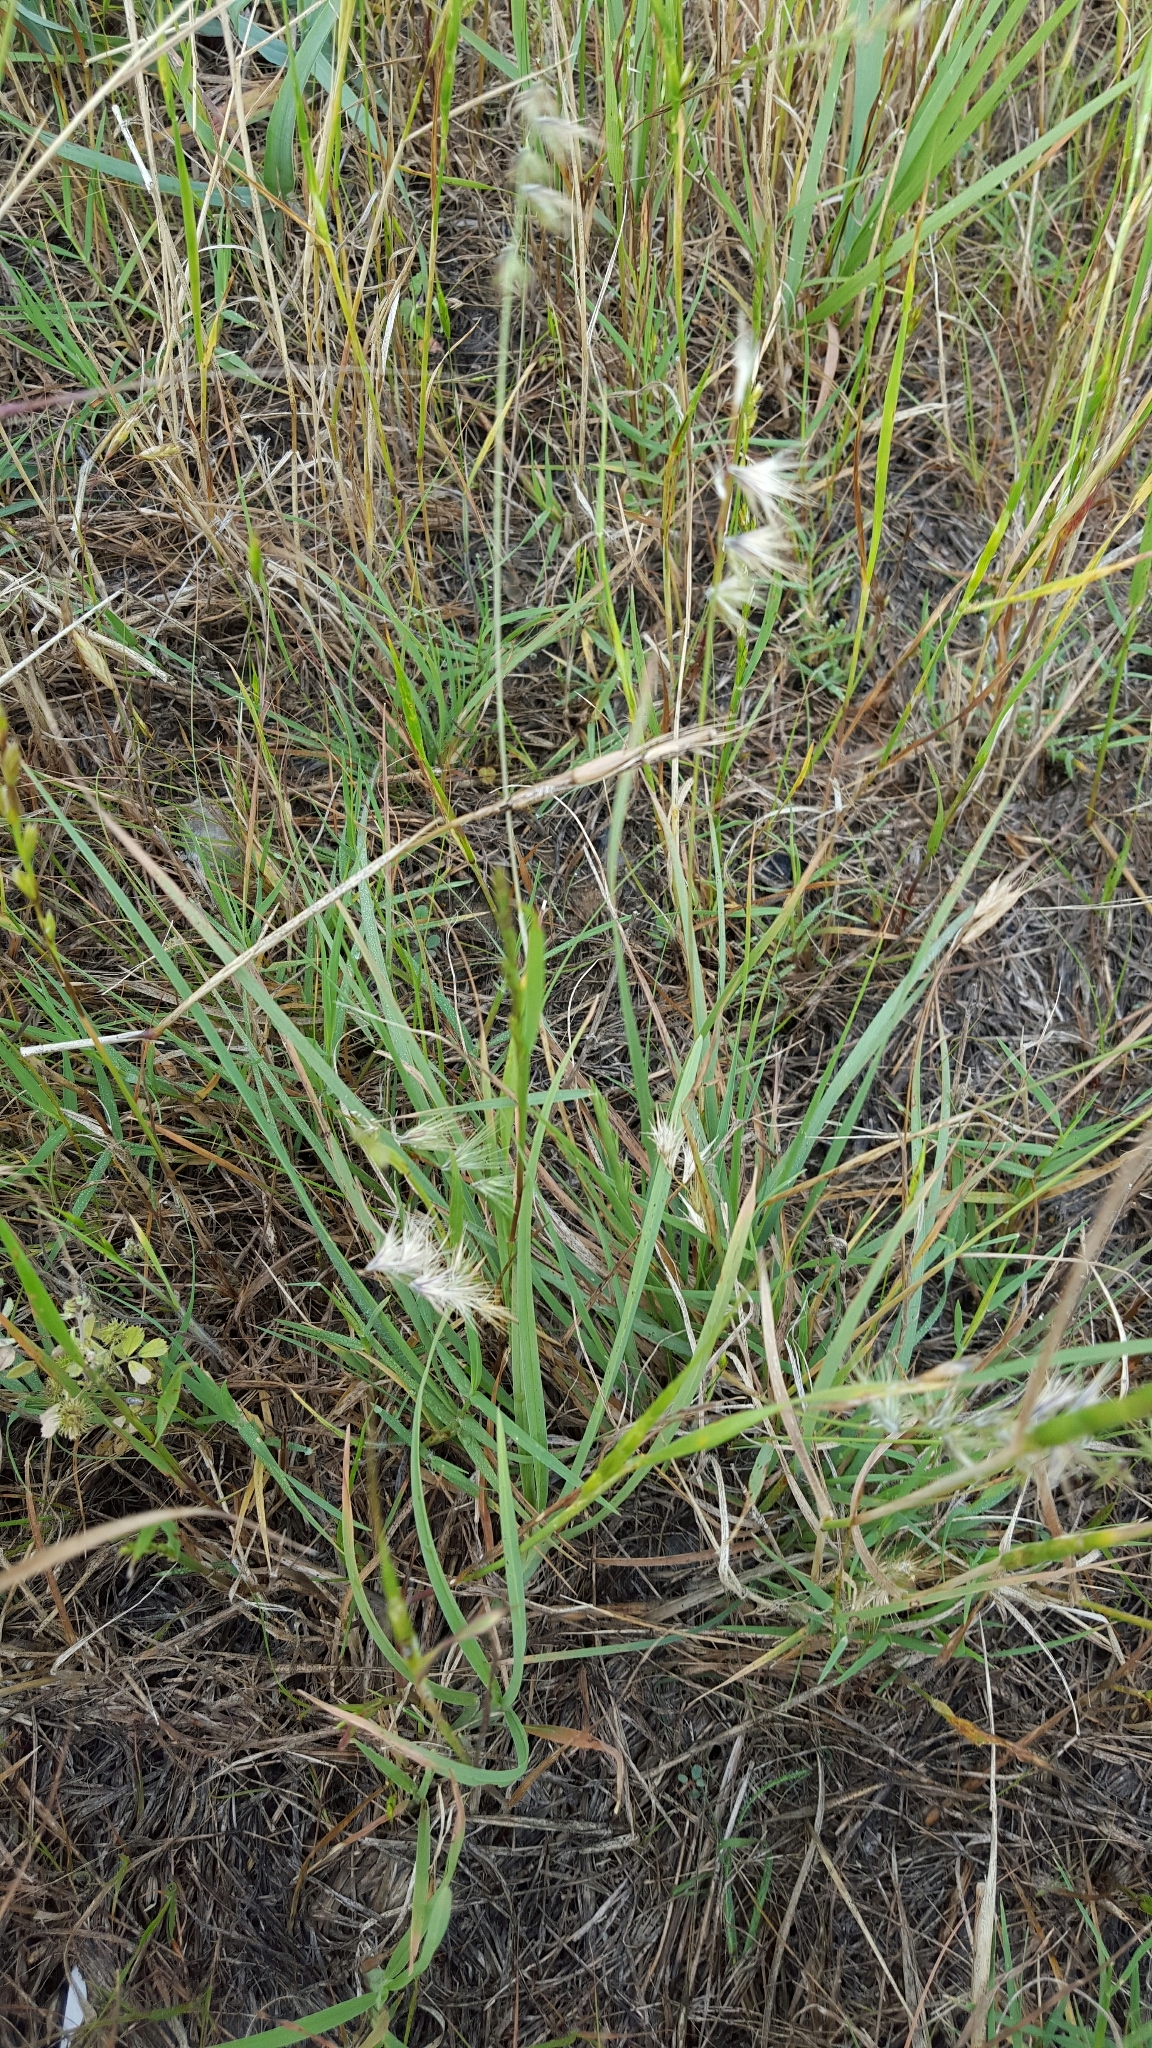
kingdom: Plantae
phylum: Tracheophyta
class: Liliopsida
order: Poales
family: Poaceae
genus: Bouteloua
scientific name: Bouteloua rigidiseta
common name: Texas grama
